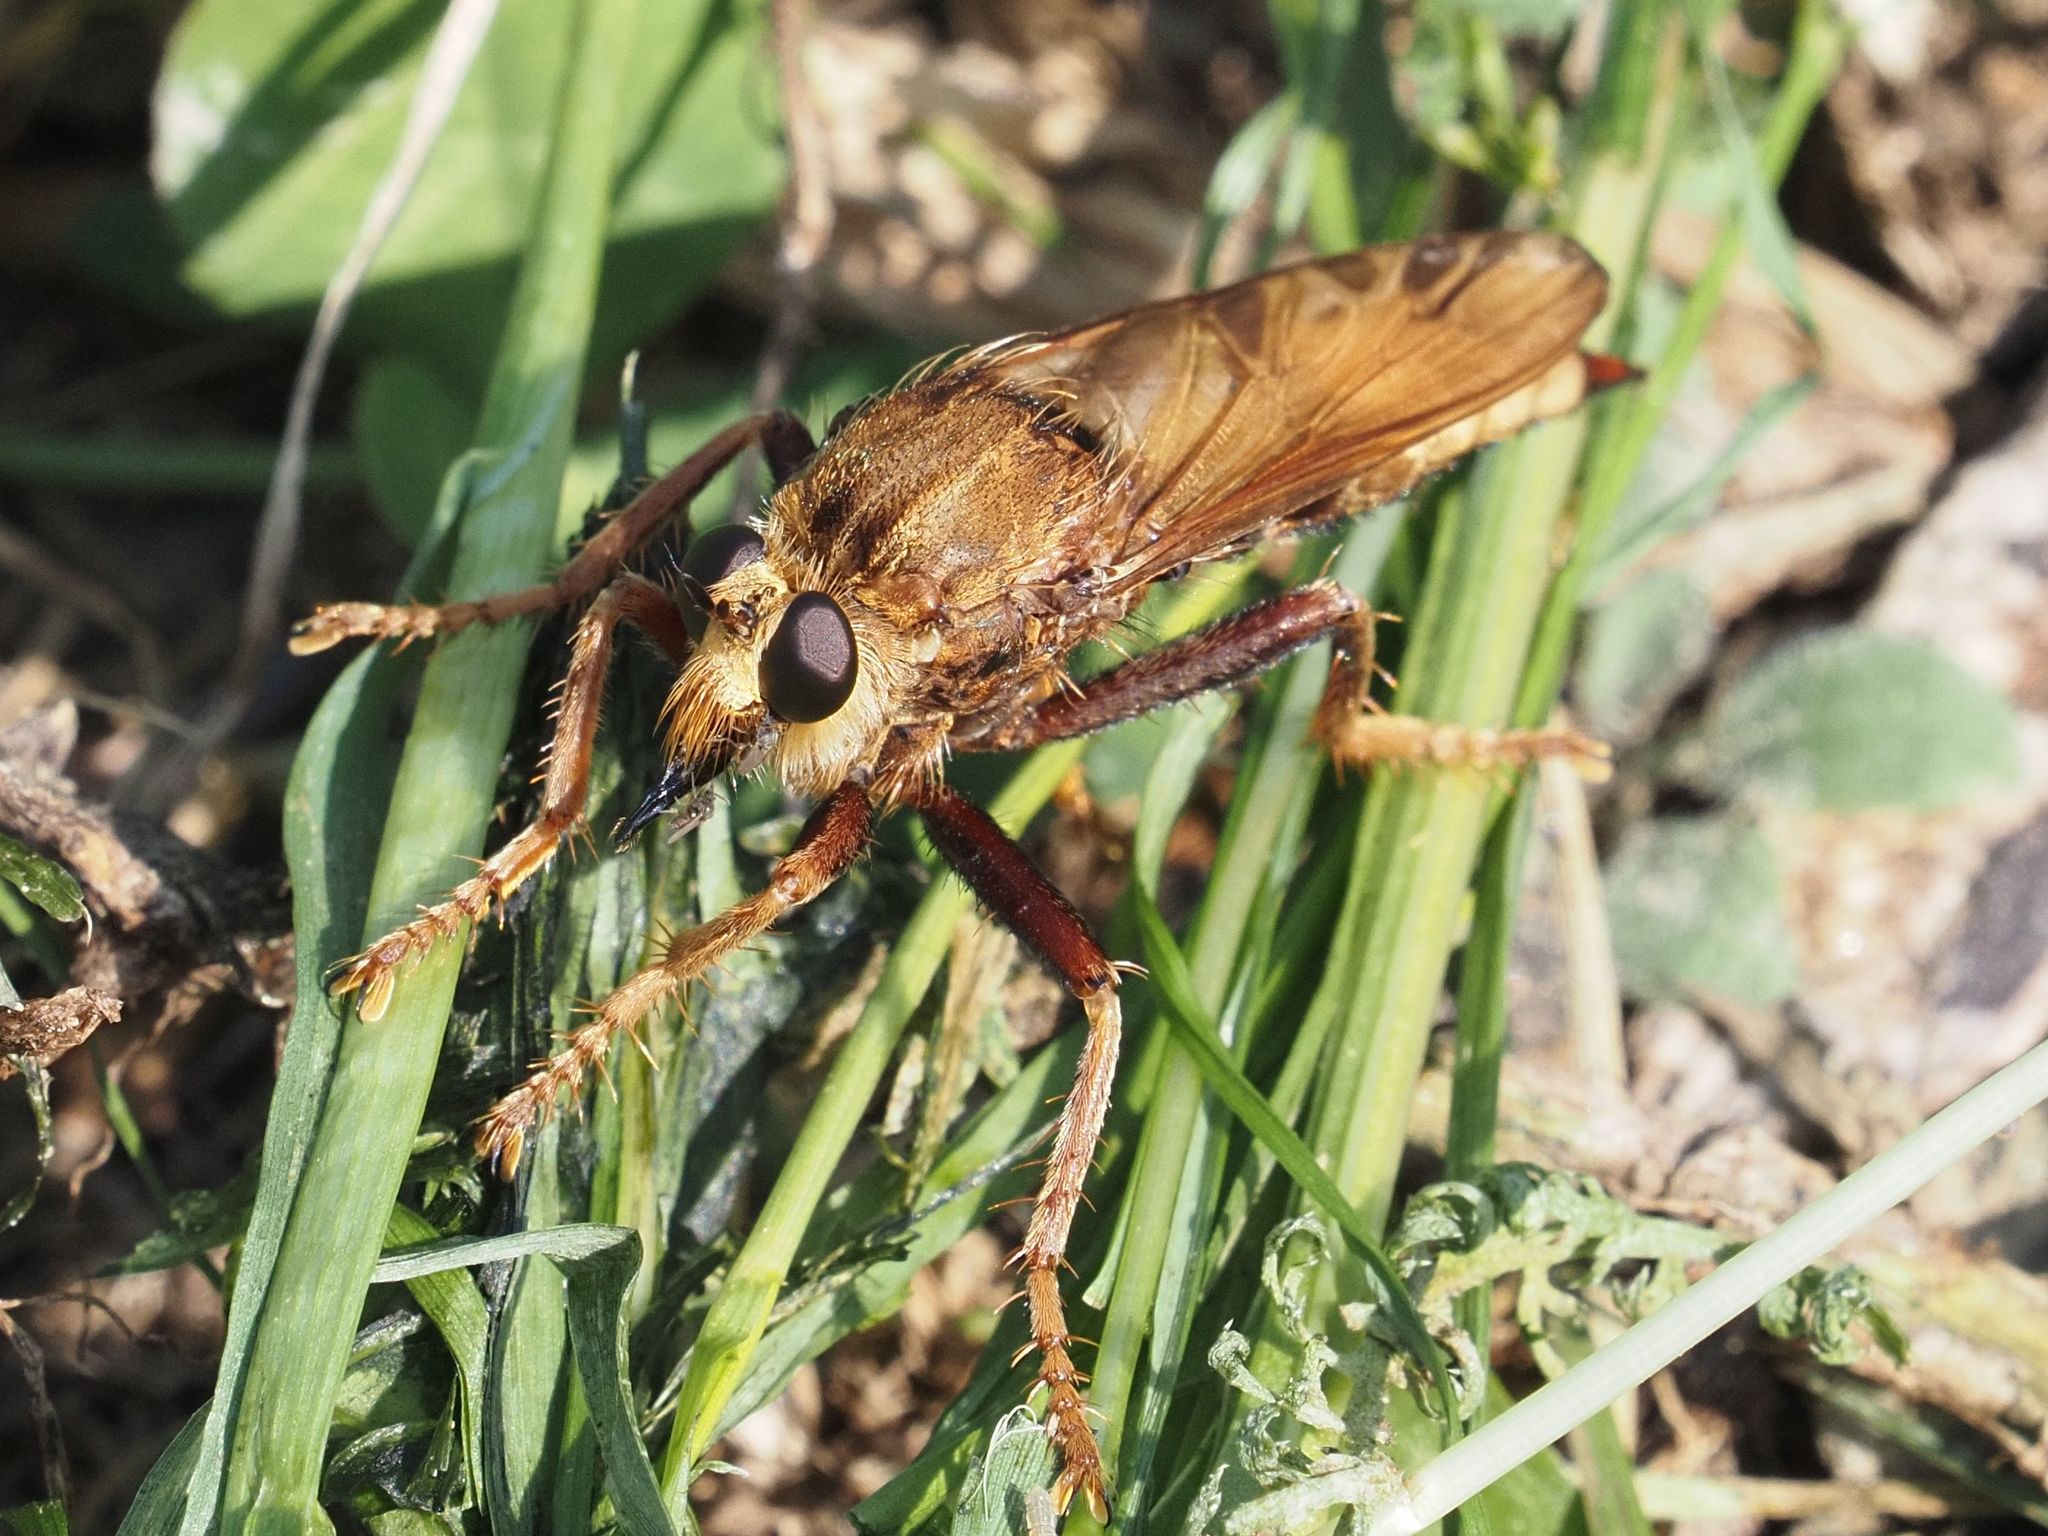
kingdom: Animalia
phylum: Arthropoda
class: Insecta
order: Diptera
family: Asilidae
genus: Asilus
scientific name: Asilus crabroniformis
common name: Hornet robberfly
